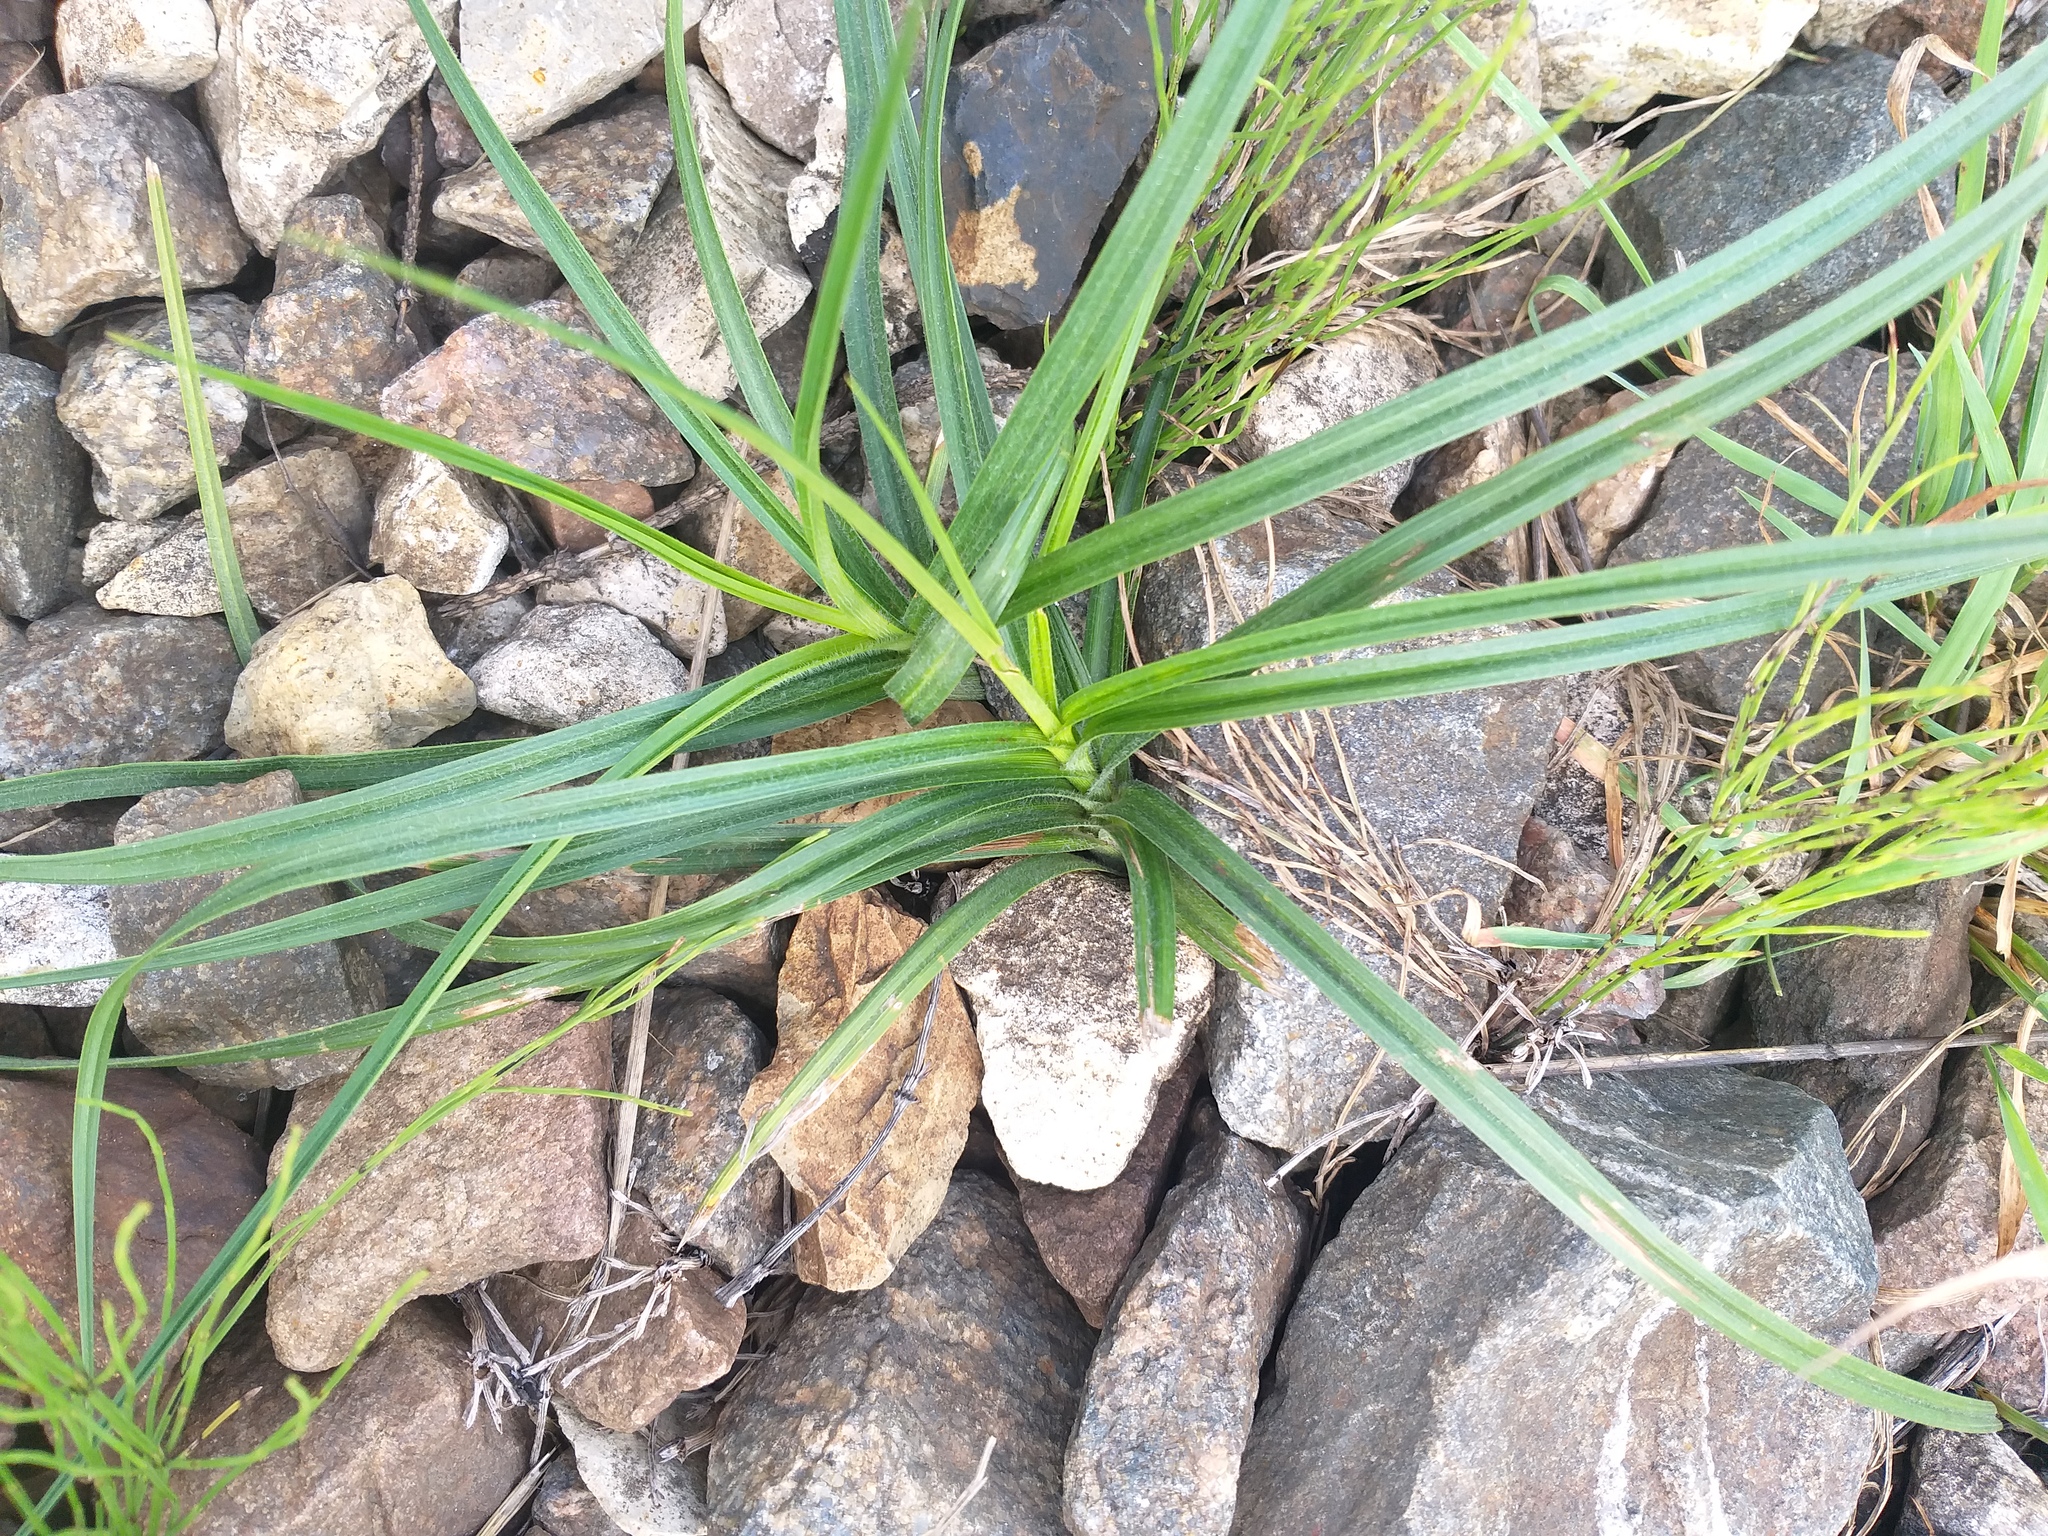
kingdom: Plantae
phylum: Tracheophyta
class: Liliopsida
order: Poales
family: Cyperaceae
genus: Carex
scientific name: Carex hirta
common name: Hairy sedge
